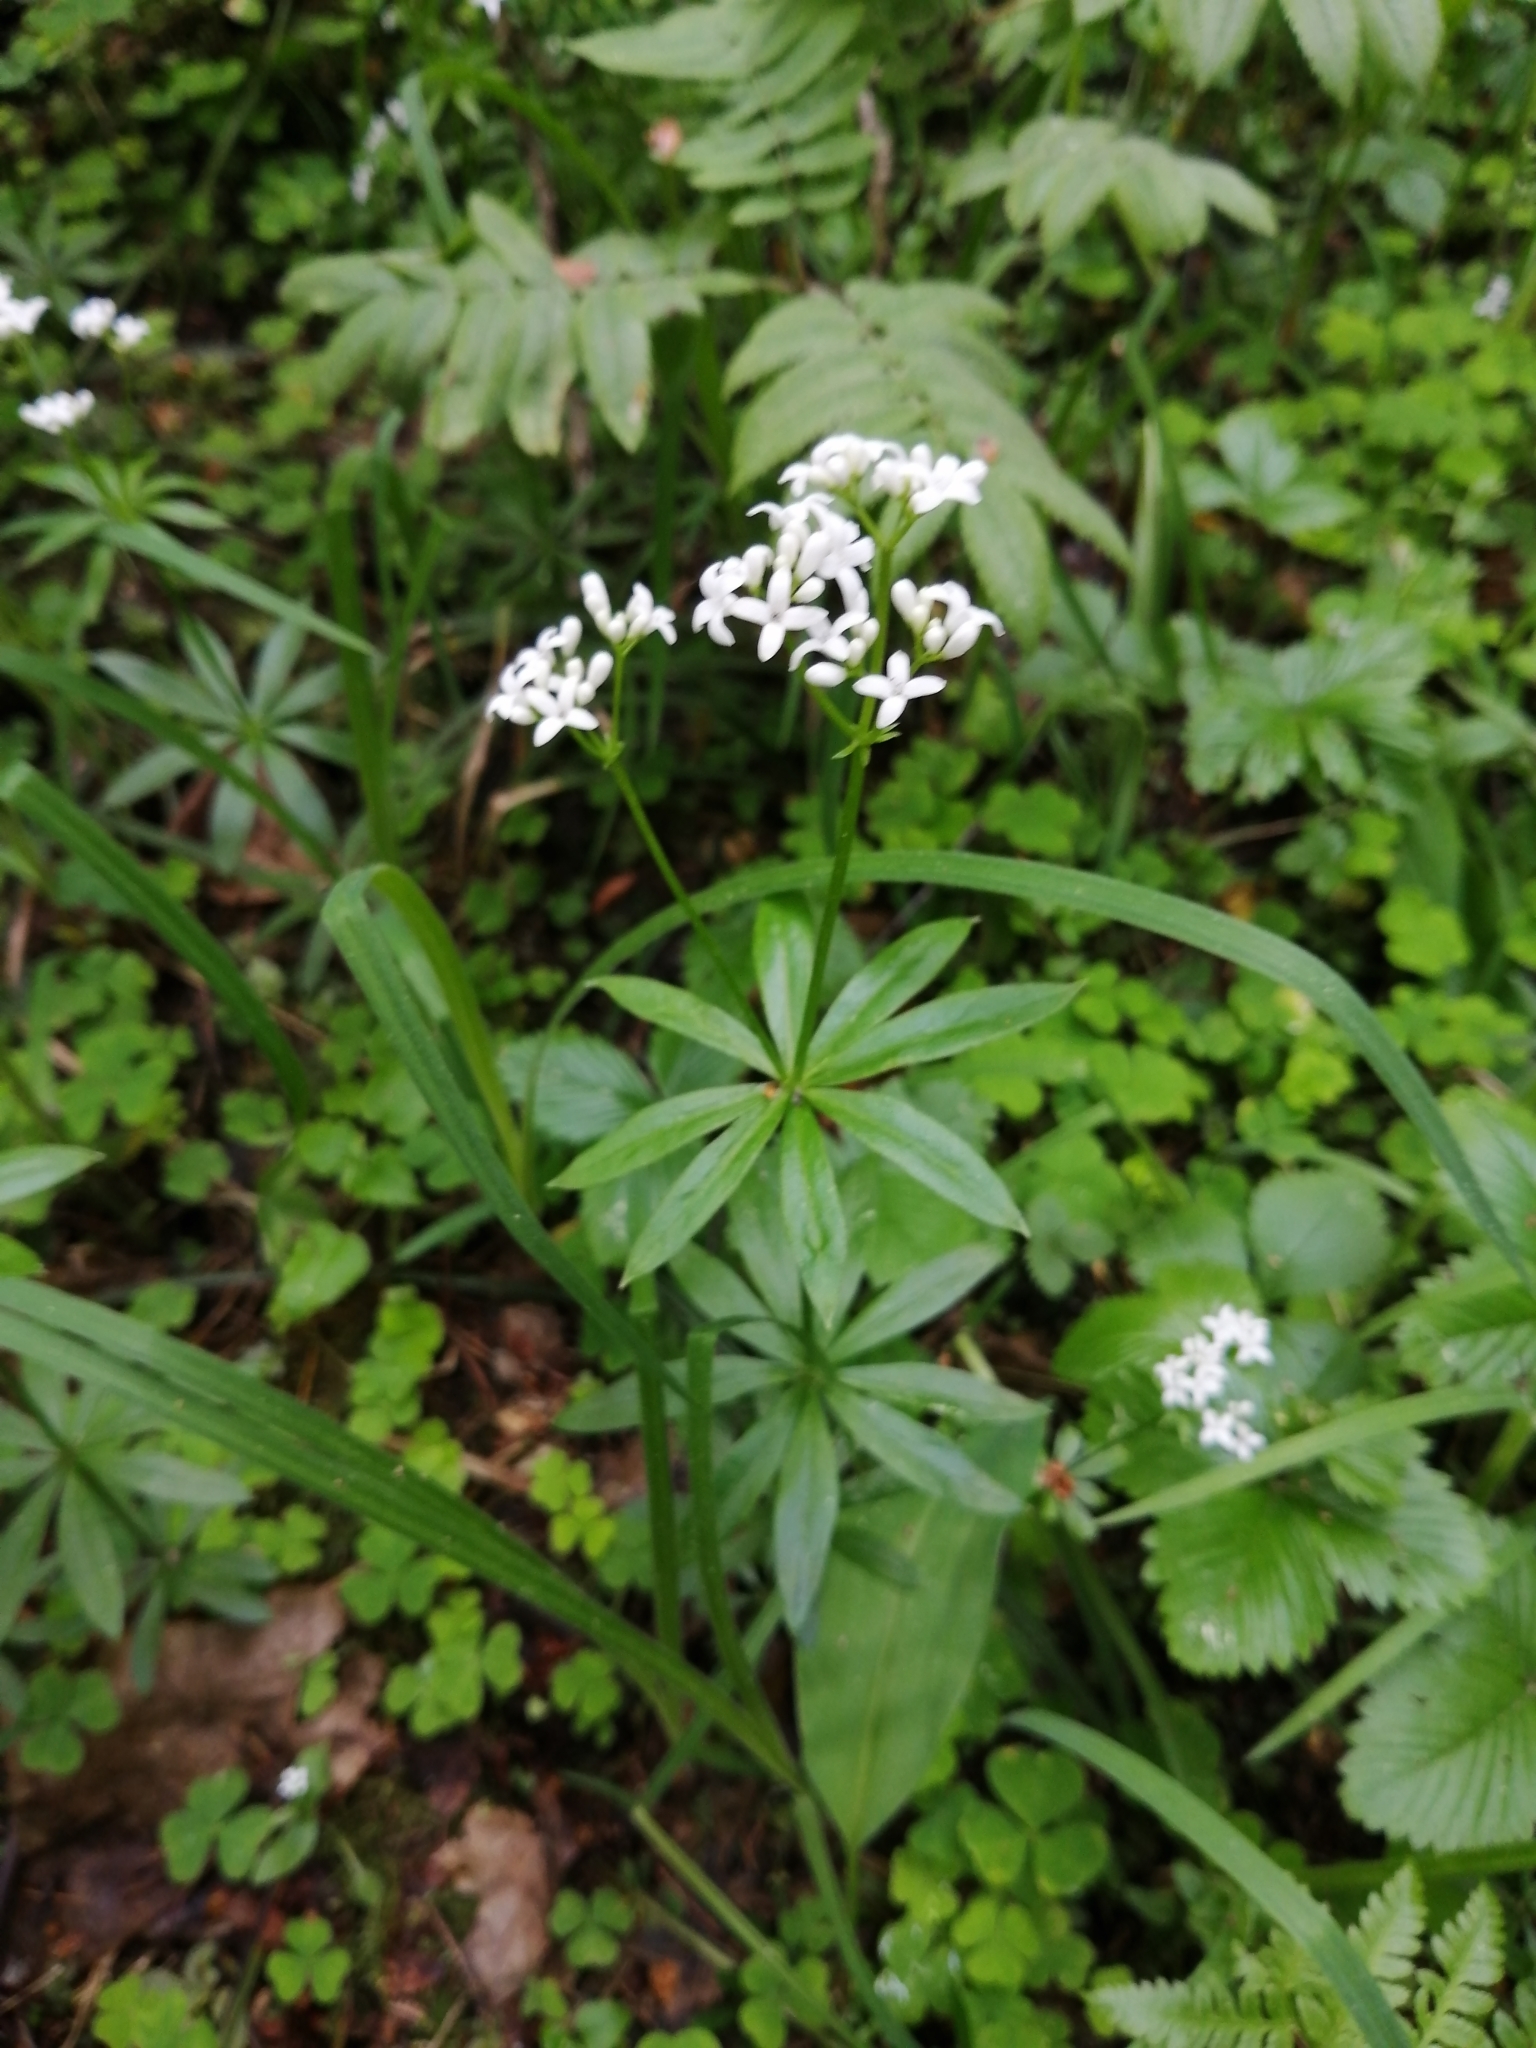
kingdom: Plantae
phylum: Tracheophyta
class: Magnoliopsida
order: Gentianales
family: Rubiaceae
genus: Galium
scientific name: Galium odoratum
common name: Sweet woodruff
